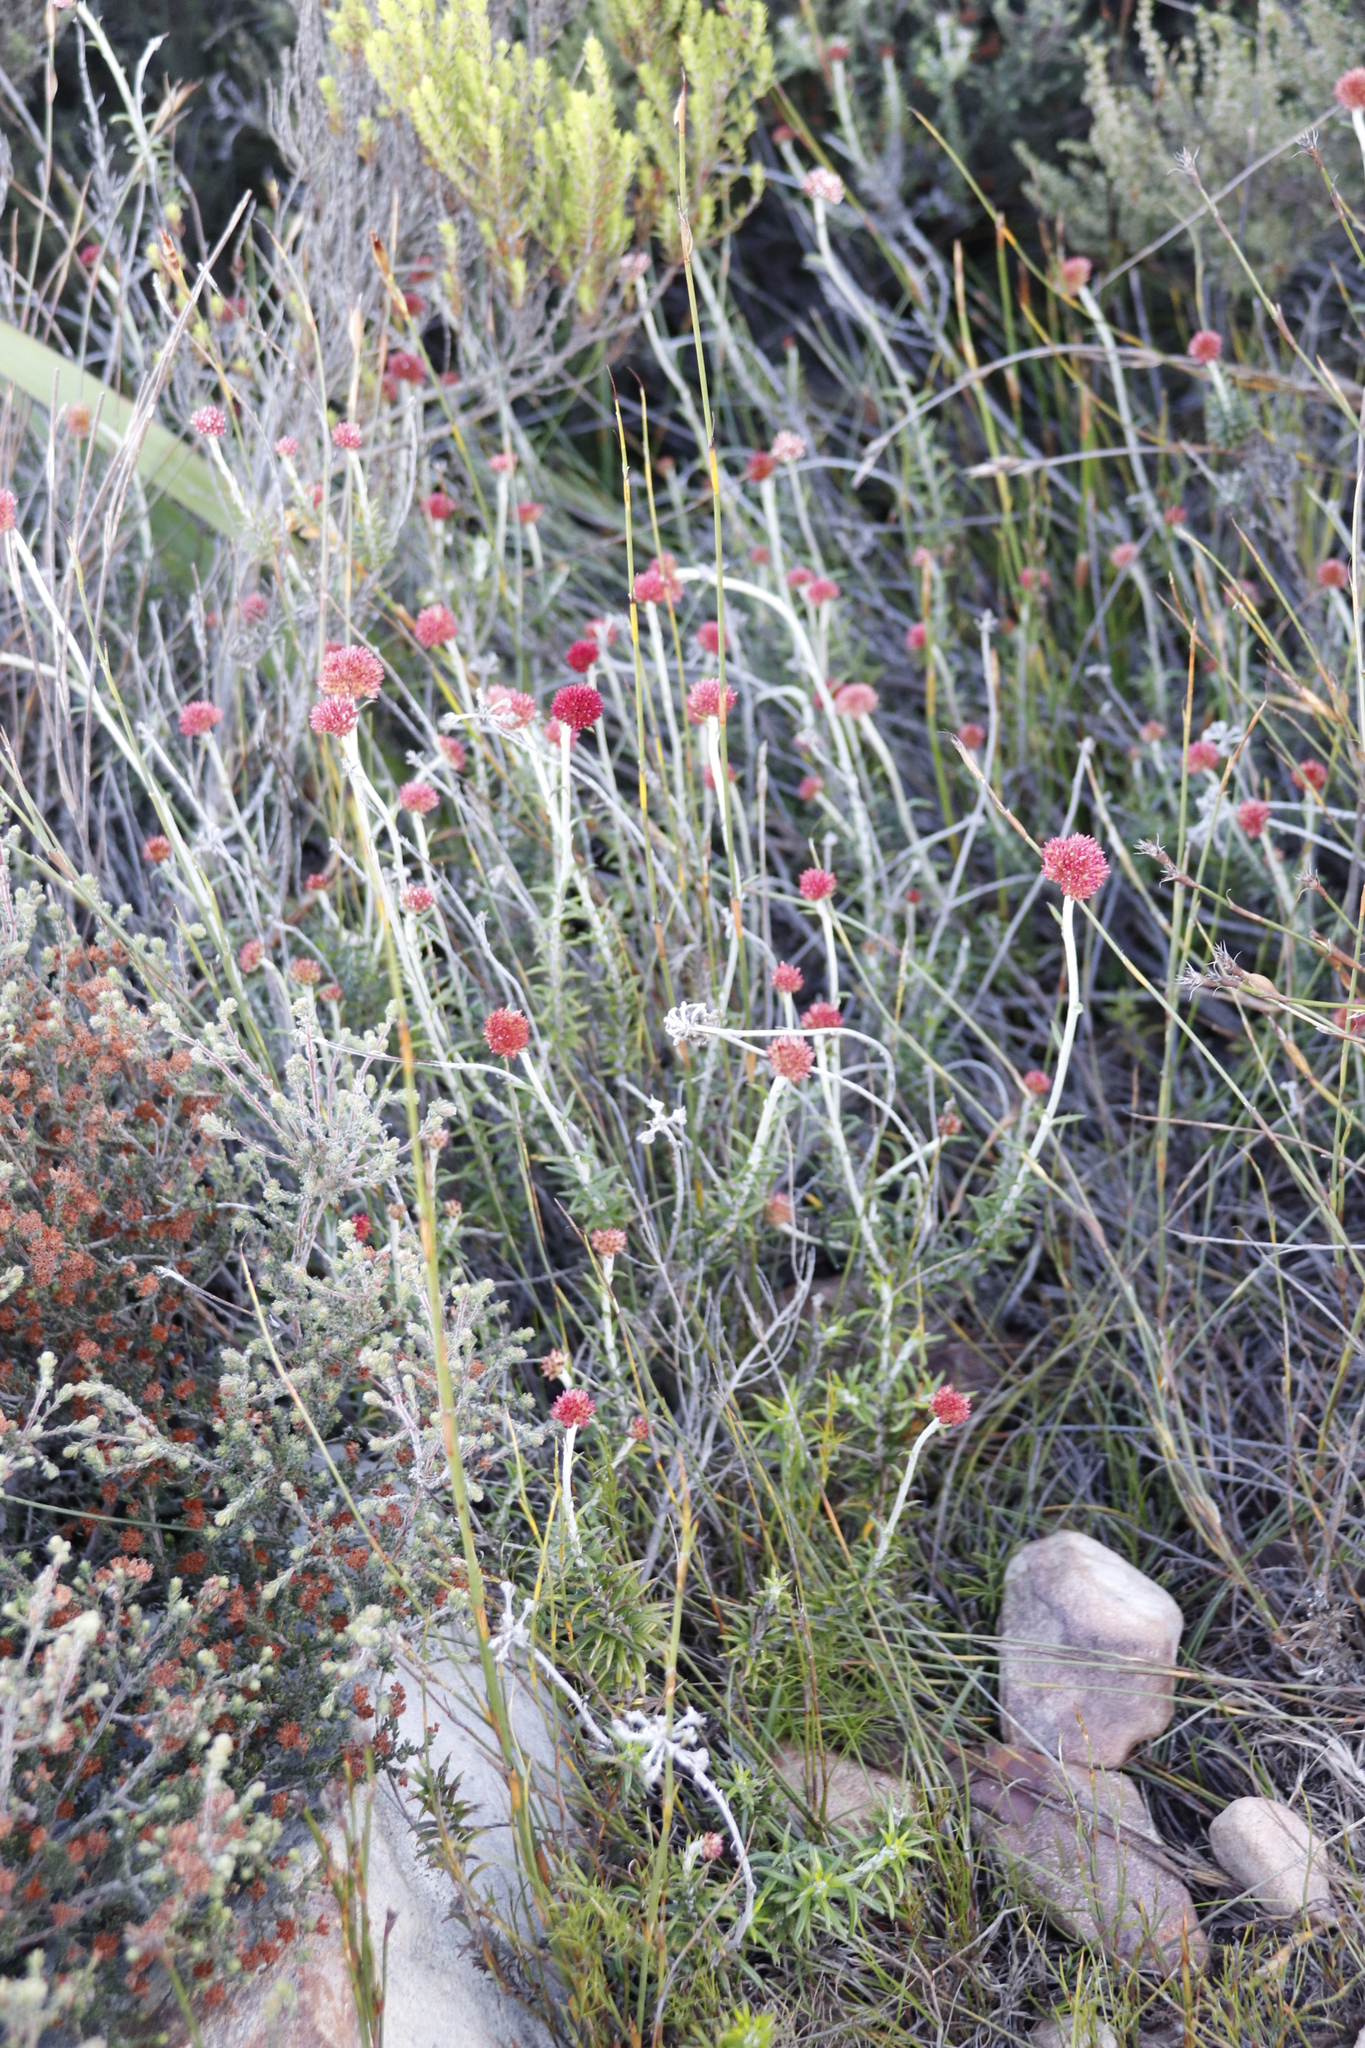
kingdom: Plantae
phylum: Tracheophyta
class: Magnoliopsida
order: Asterales
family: Asteraceae
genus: Anaxeton
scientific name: Anaxeton arborescens
